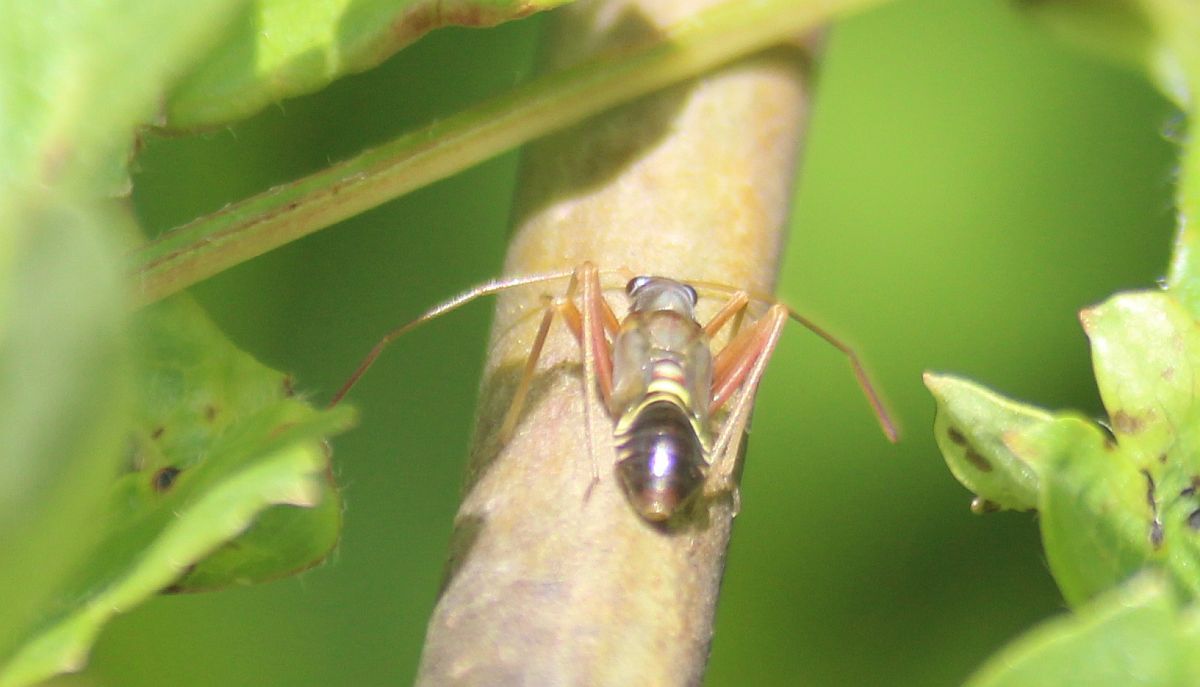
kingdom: Animalia
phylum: Arthropoda
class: Insecta
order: Hemiptera
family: Miridae
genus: Miris
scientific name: Miris striatus
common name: Fine streaked bugkin
